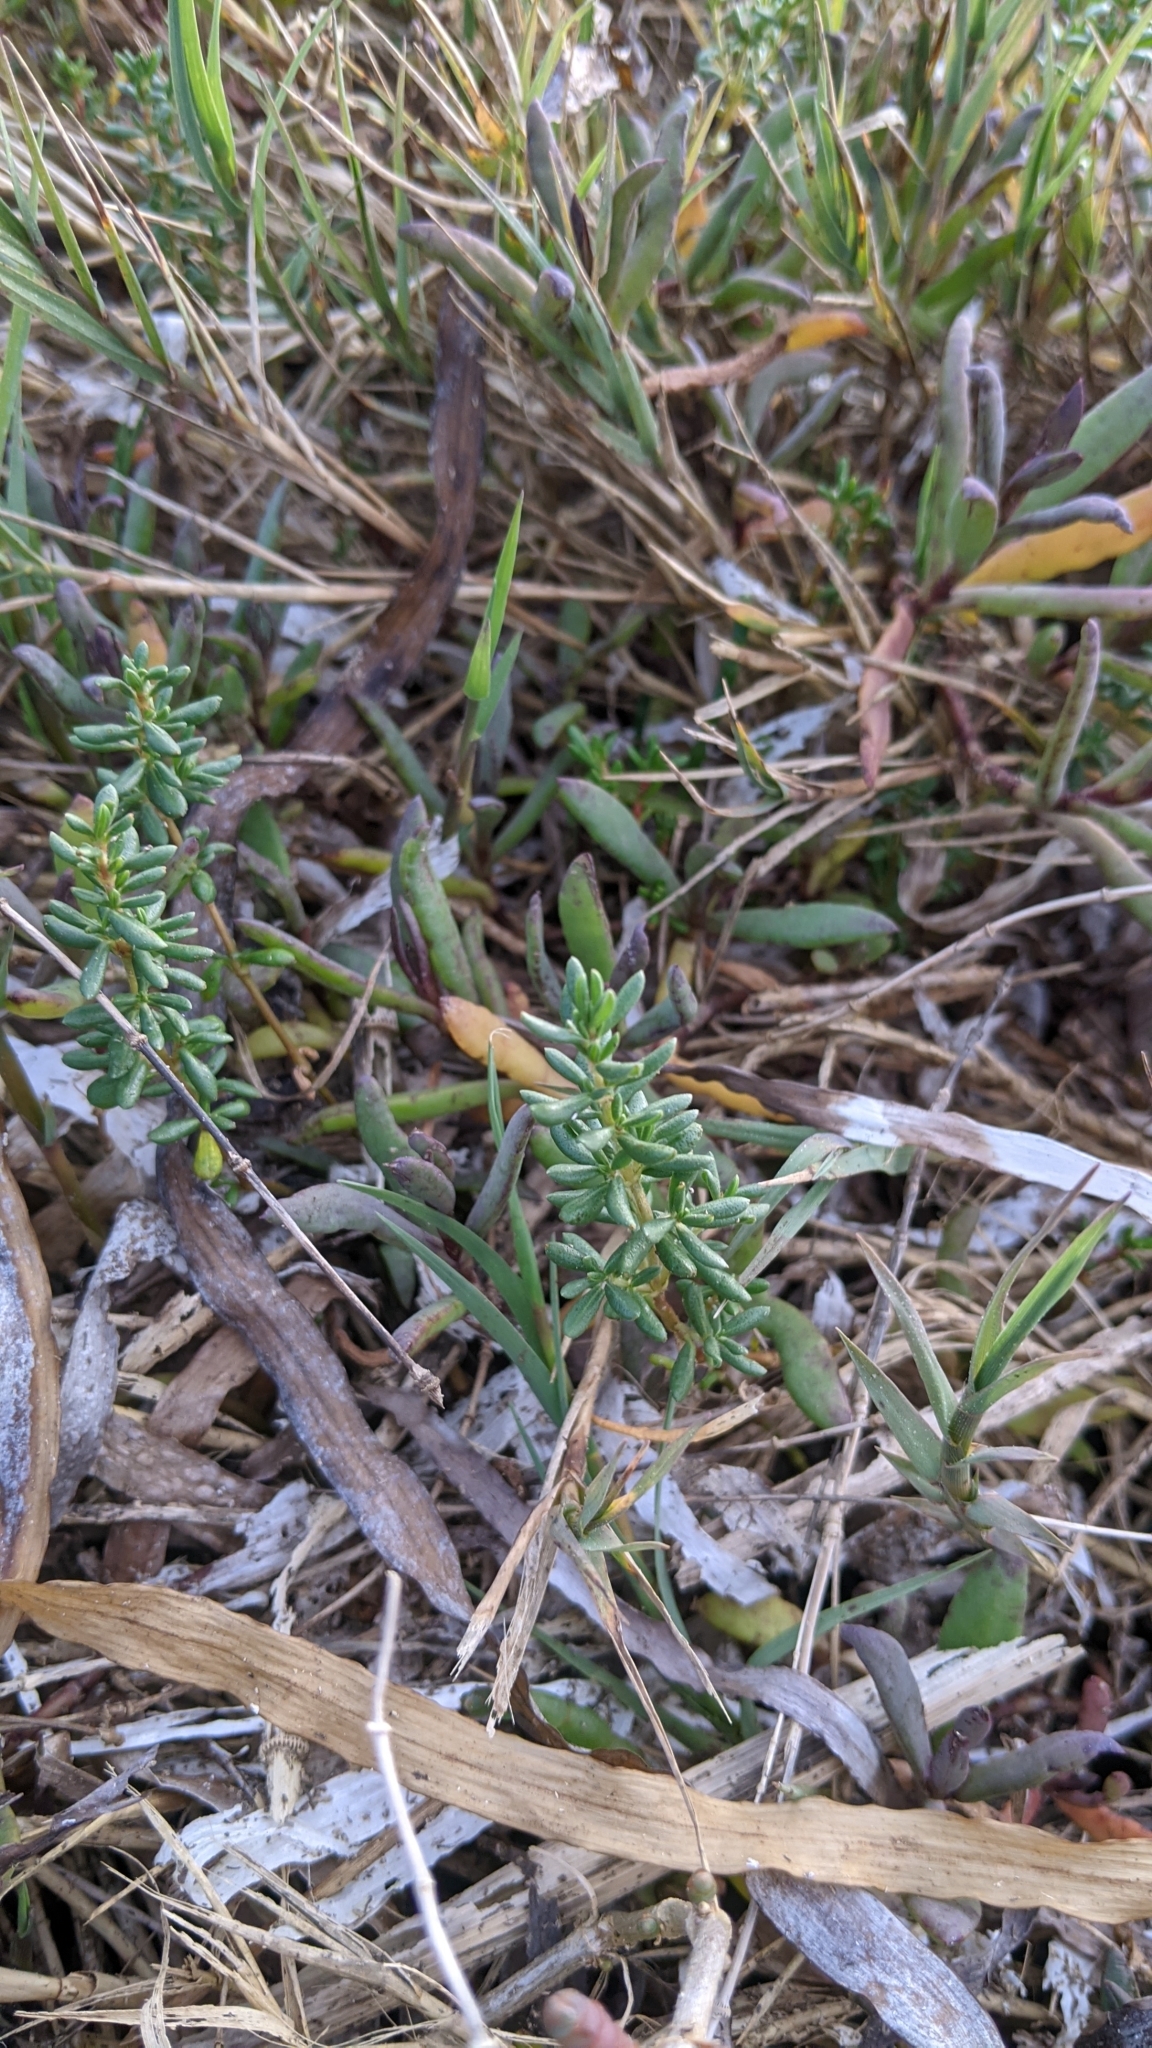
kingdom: Plantae
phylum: Tracheophyta
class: Magnoliopsida
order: Caryophyllales
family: Frankeniaceae
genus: Frankenia
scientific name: Frankenia salina
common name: Alkali seaheath
